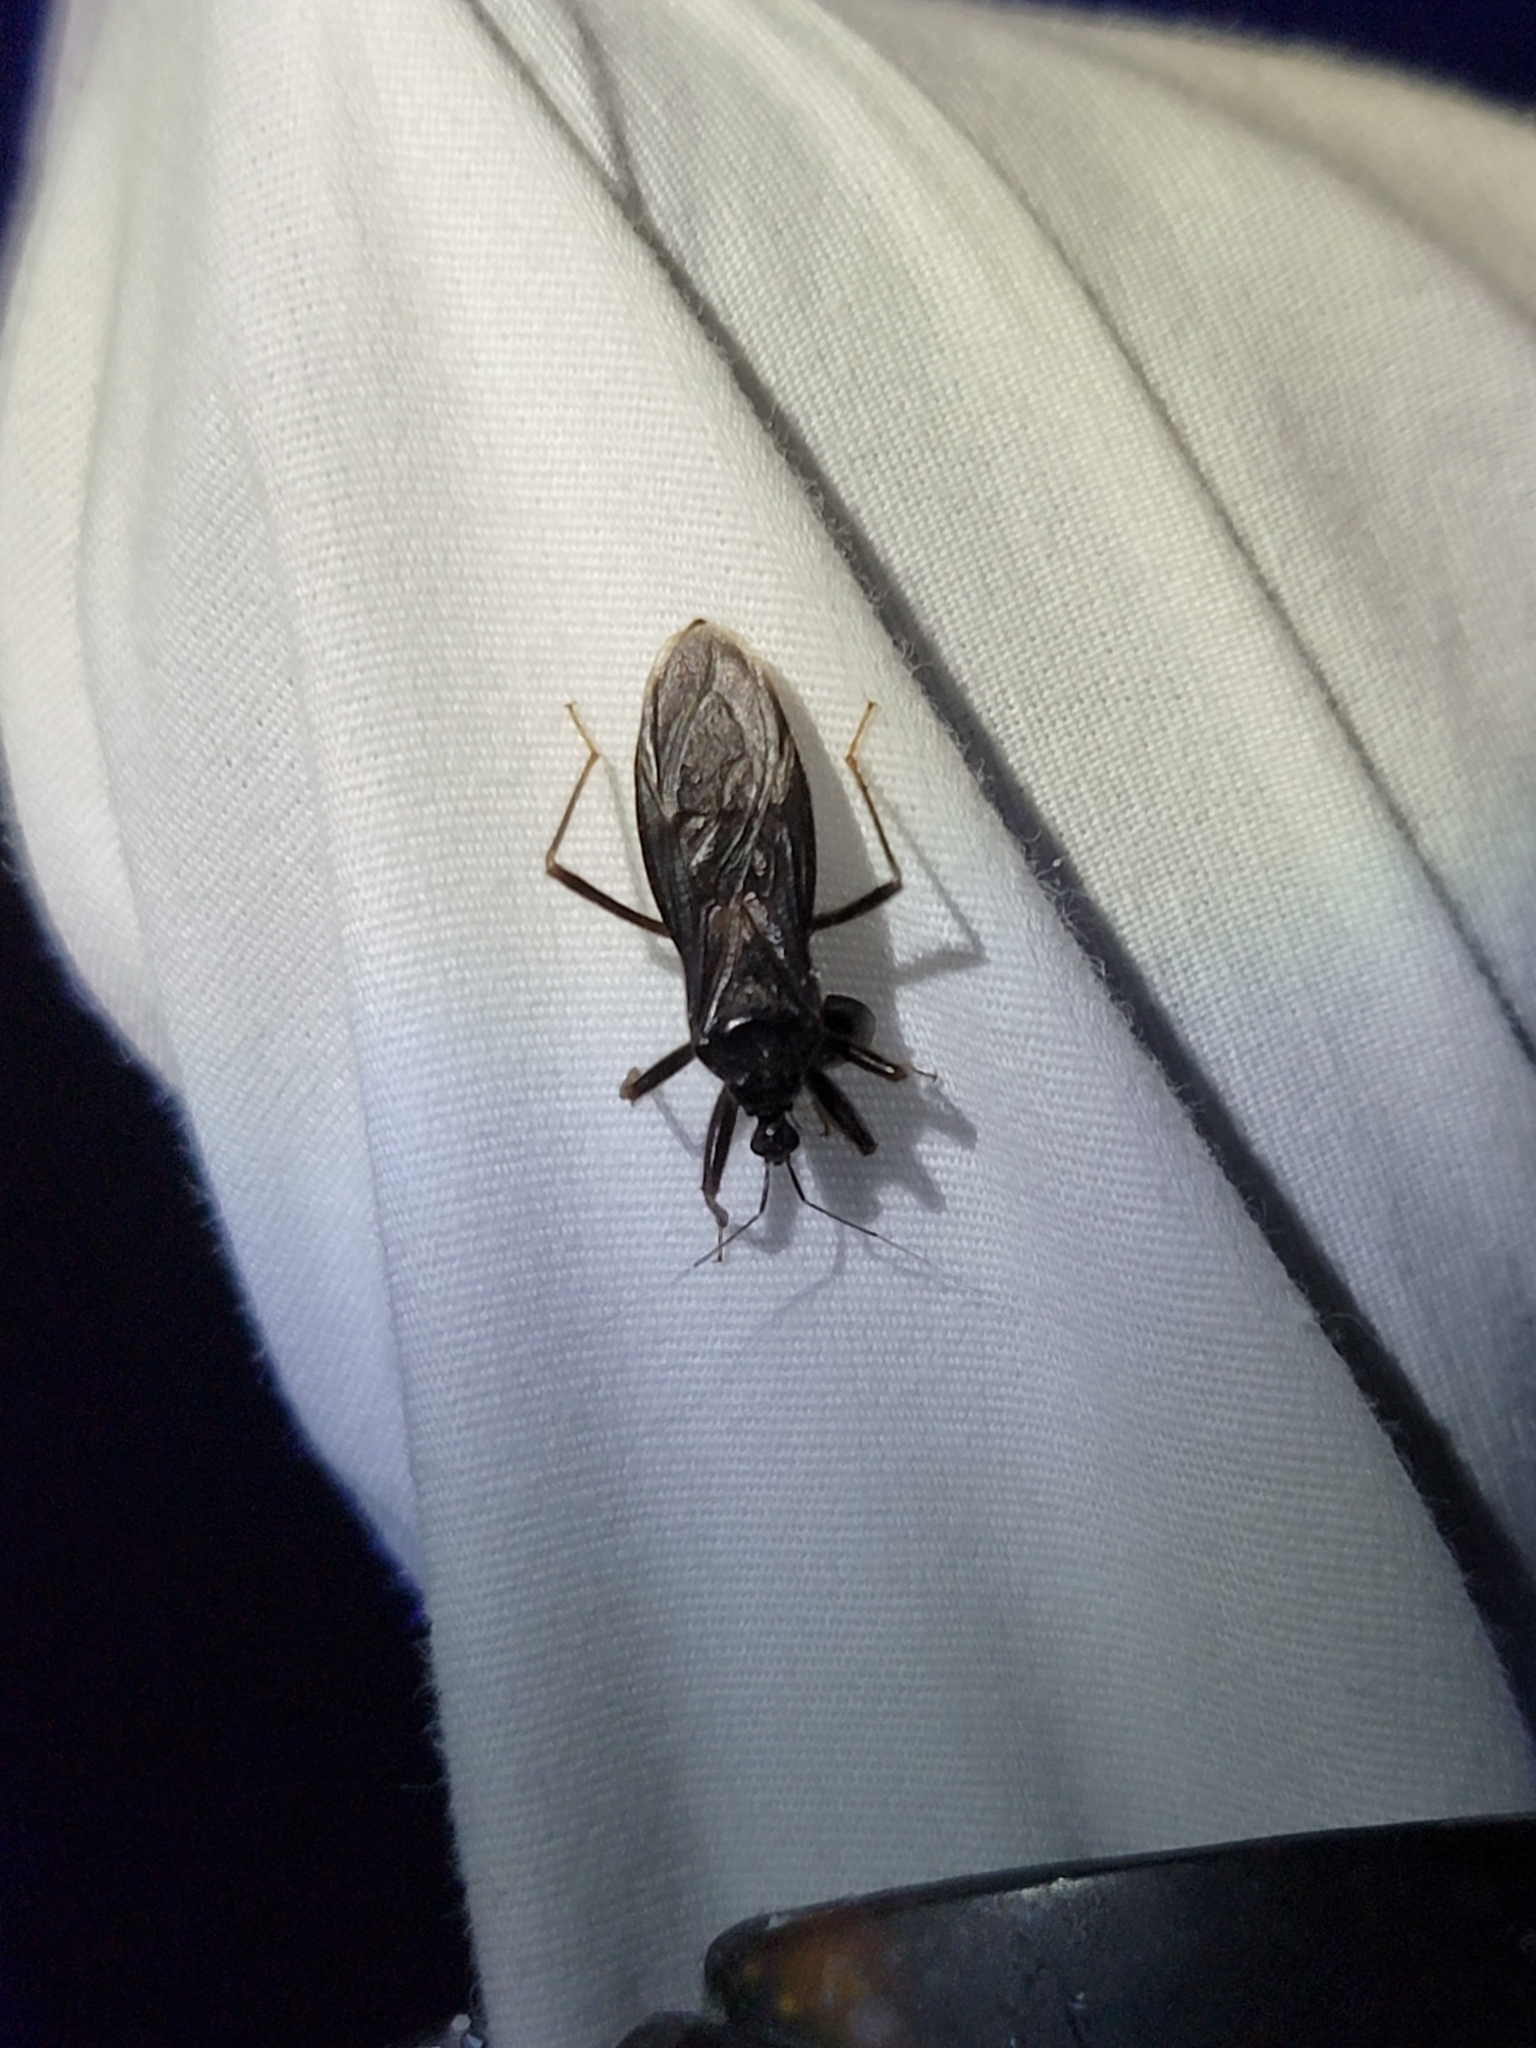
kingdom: Animalia
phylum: Arthropoda
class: Insecta
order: Hemiptera
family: Reduviidae
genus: Reduvius
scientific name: Reduvius personatus
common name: Masked hunter
